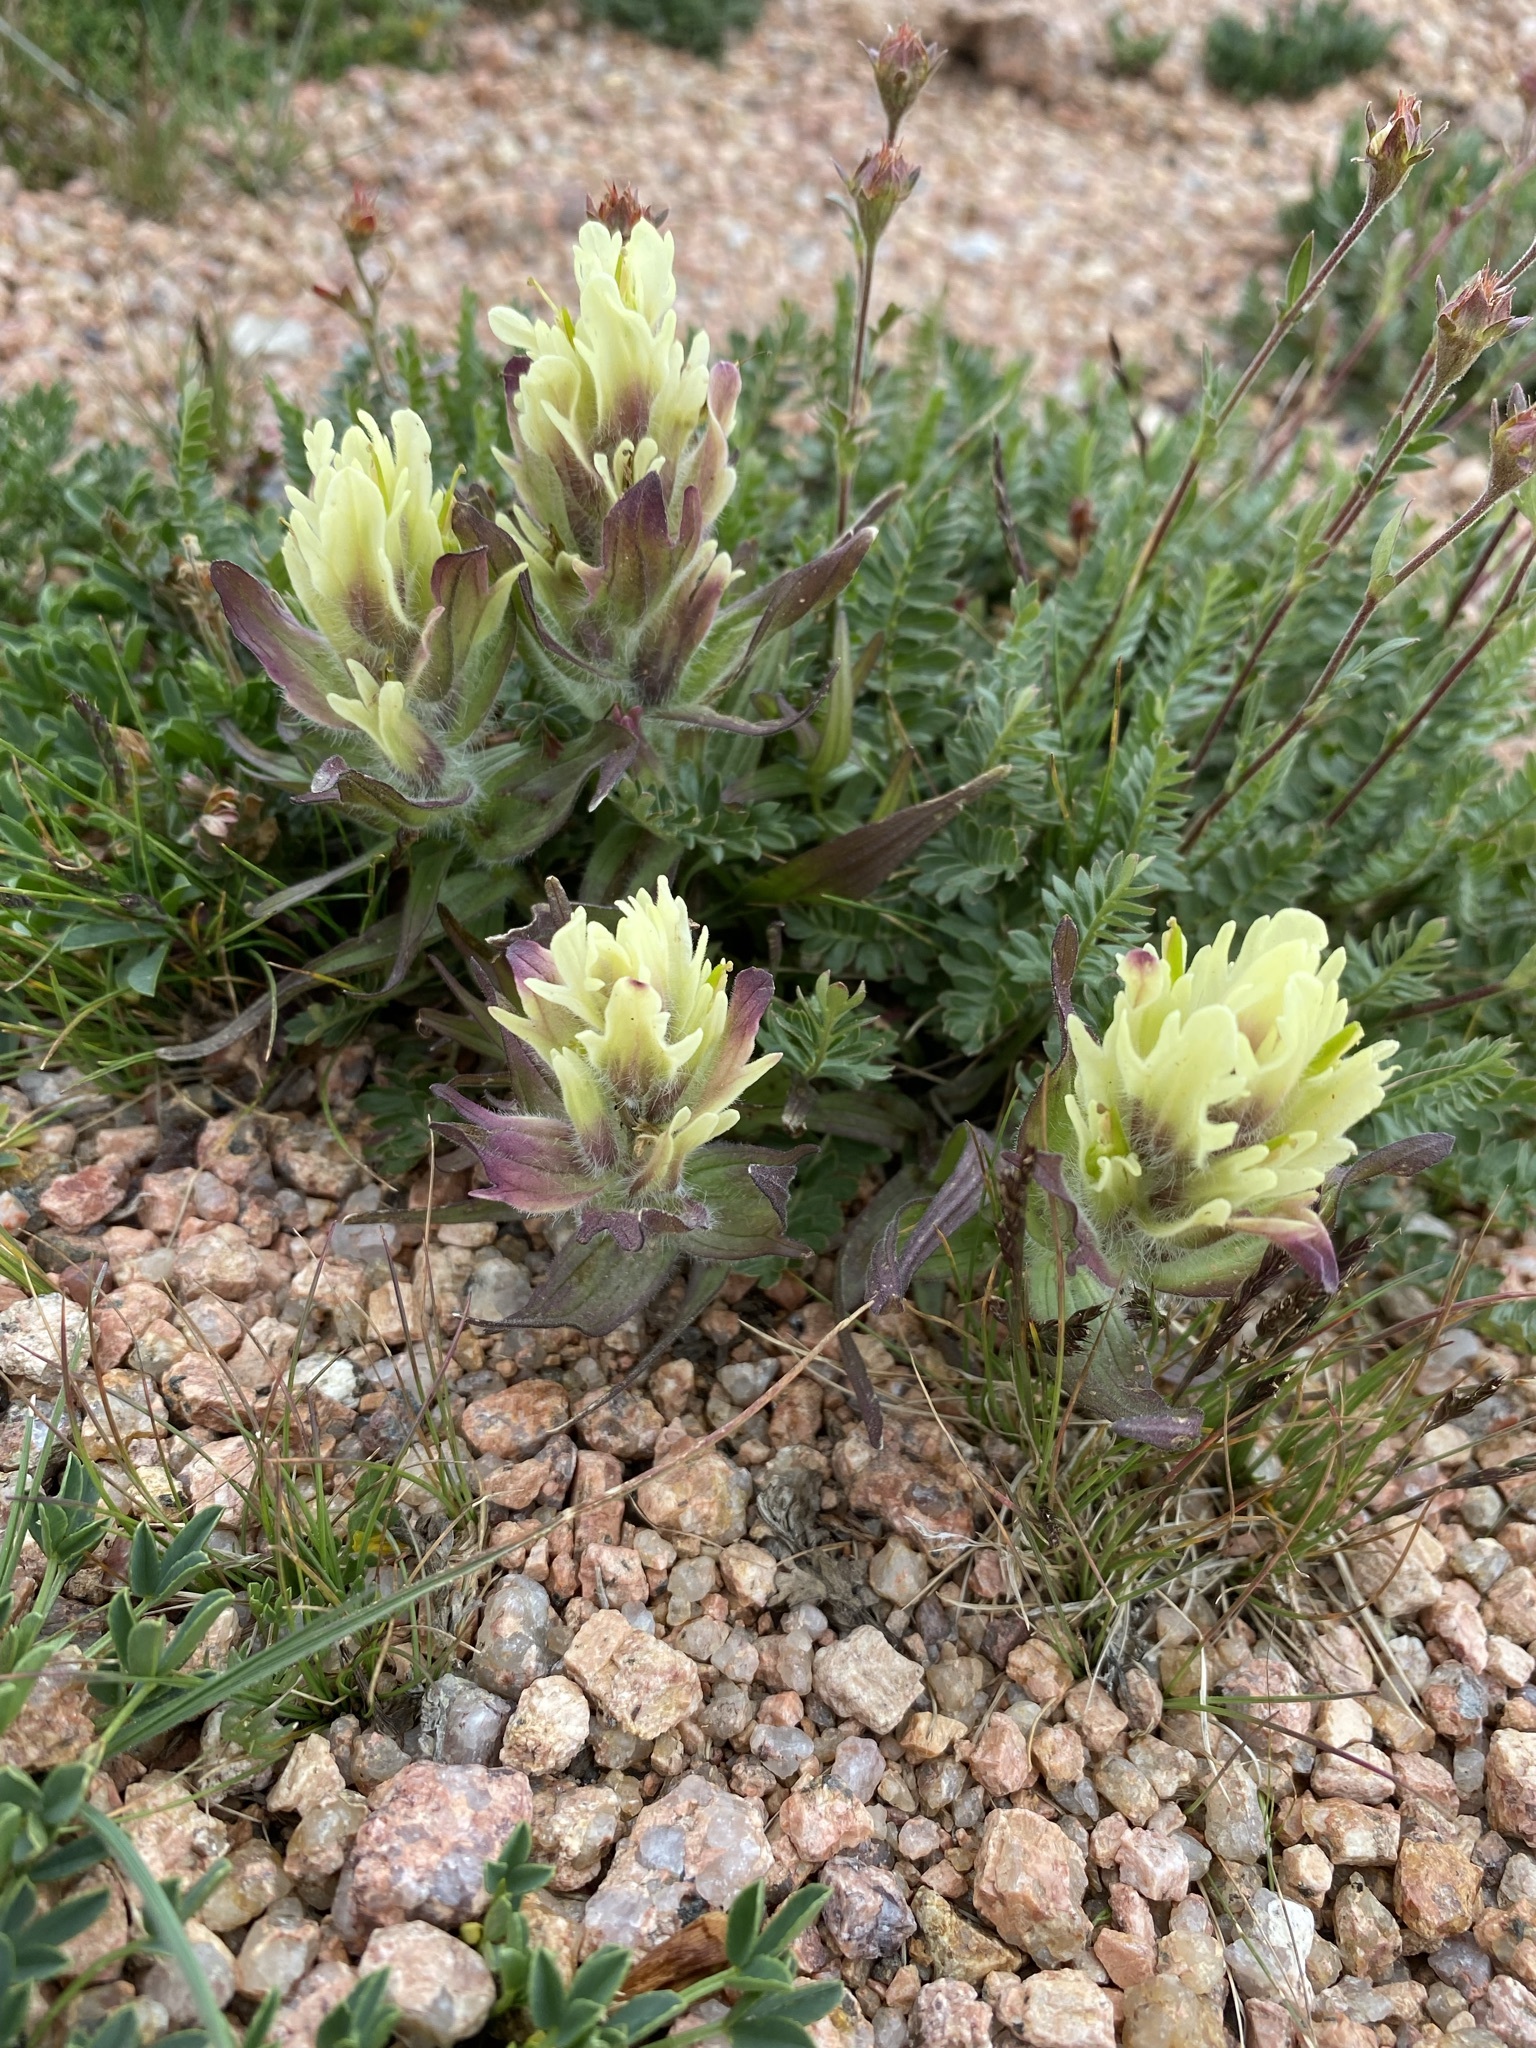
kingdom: Plantae
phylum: Tracheophyta
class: Magnoliopsida
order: Lamiales
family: Orobanchaceae
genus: Castilleja
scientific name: Castilleja occidentalis
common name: Western paintbrush
